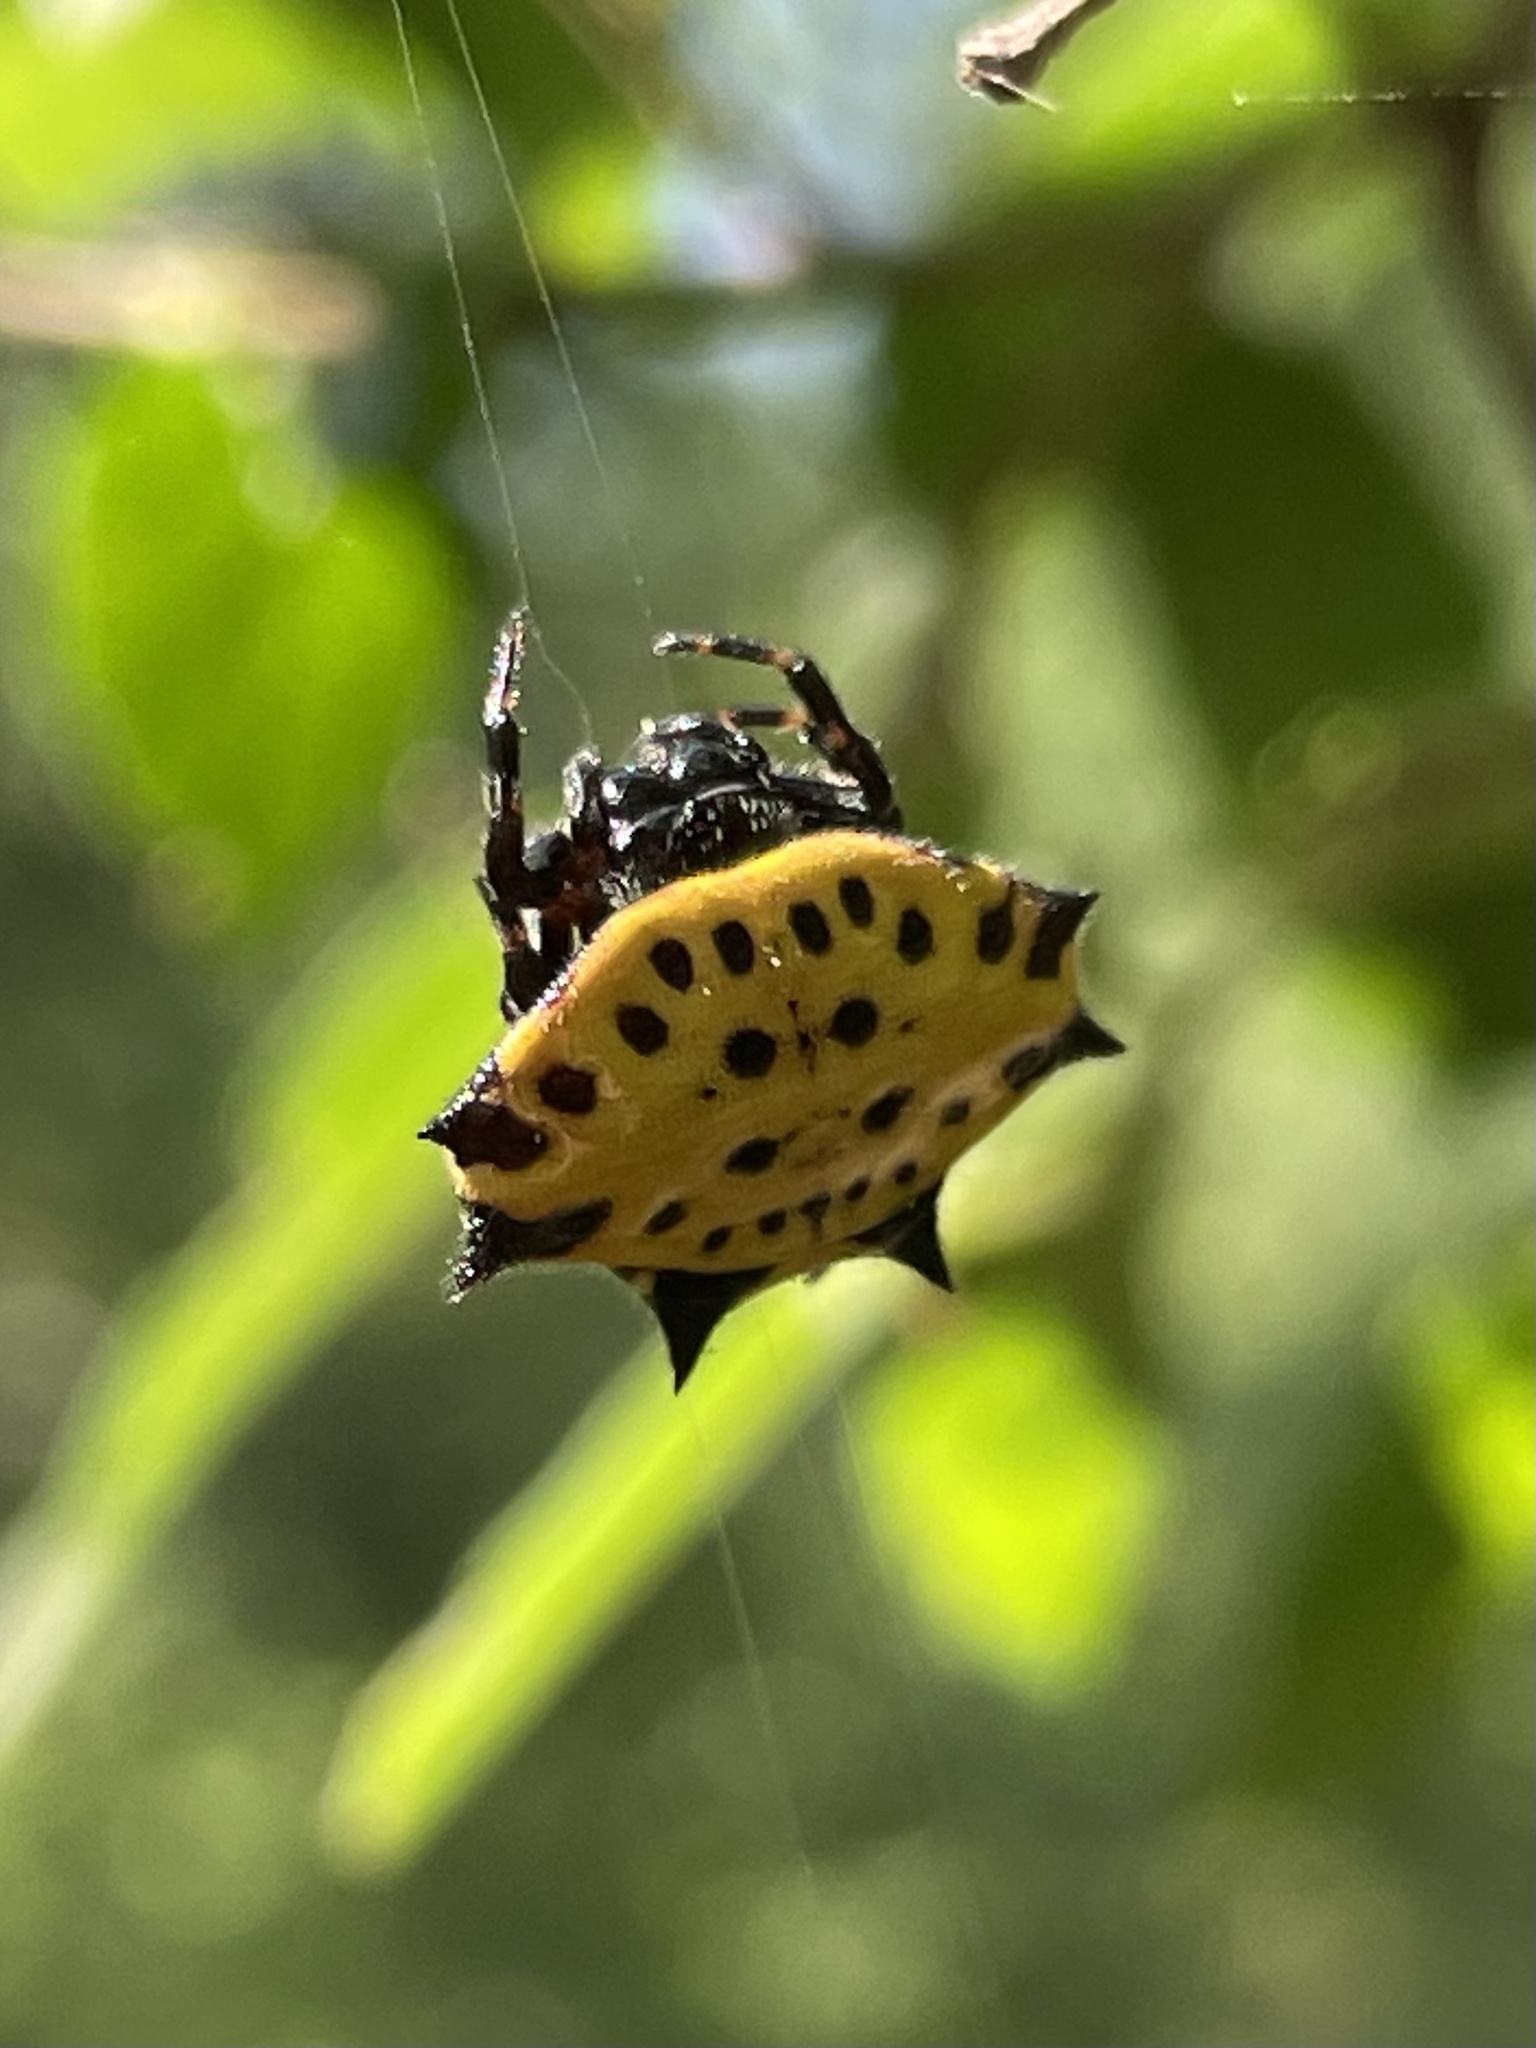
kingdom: Animalia
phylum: Arthropoda
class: Arachnida
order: Araneae
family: Araneidae
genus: Gasteracantha
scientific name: Gasteracantha cancriformis
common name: Orb weavers
